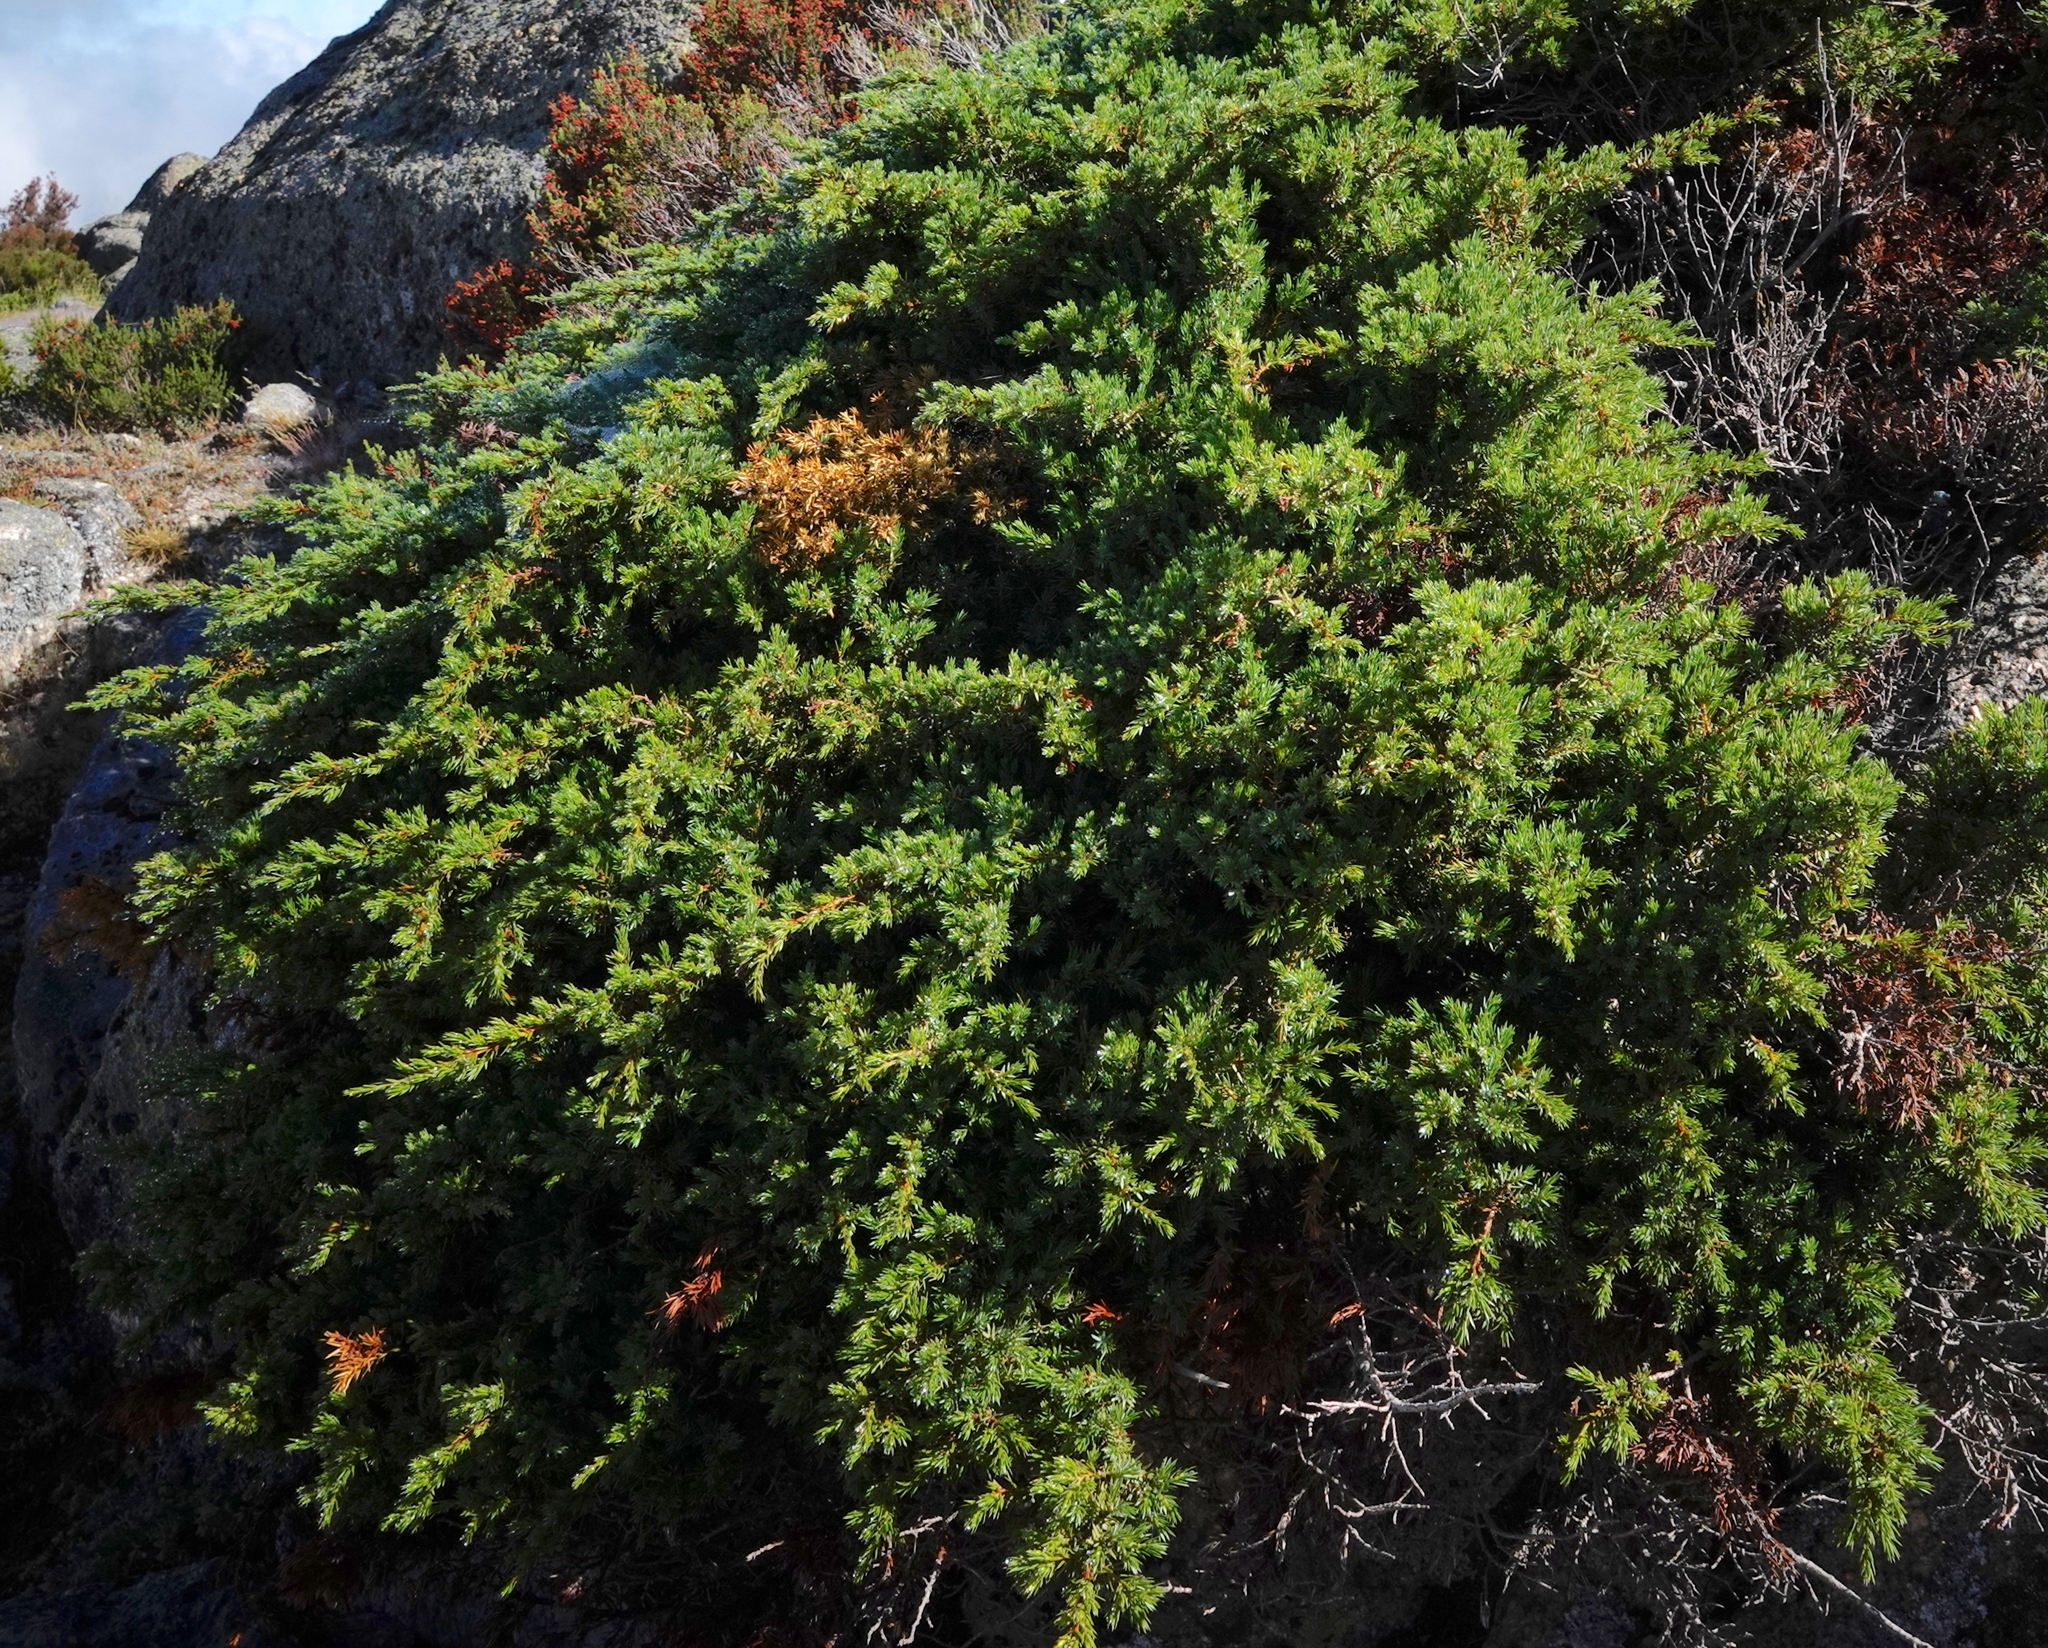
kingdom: Plantae
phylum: Tracheophyta
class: Pinopsida
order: Pinales
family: Cupressaceae
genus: Juniperus
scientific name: Juniperus communis
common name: Common juniper
